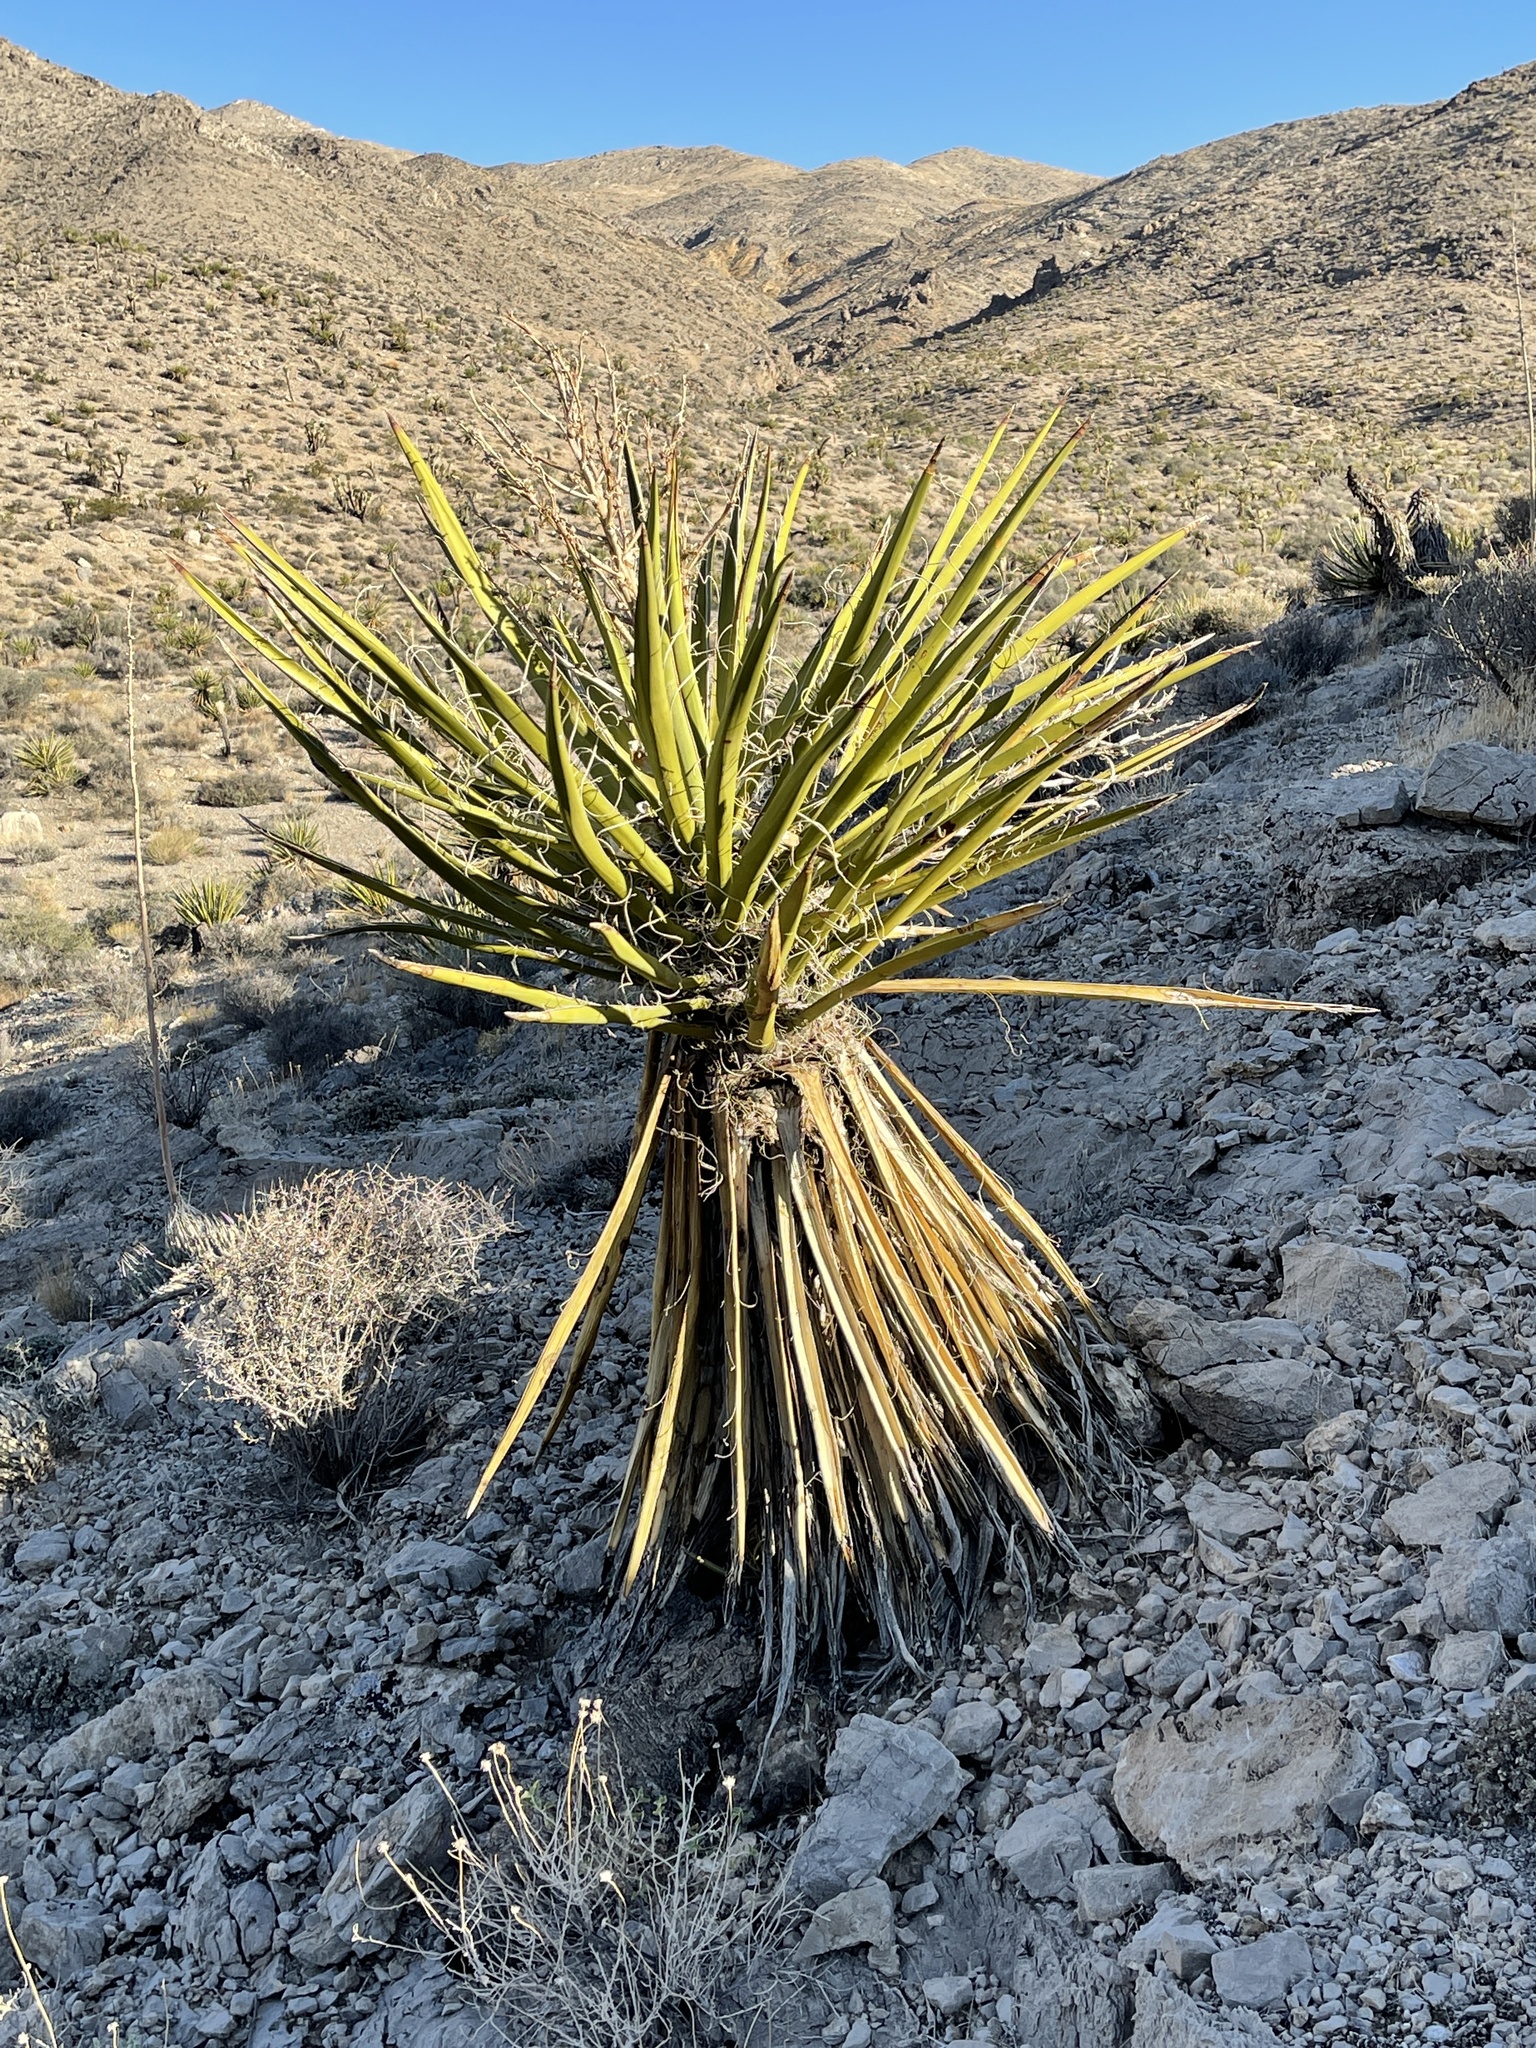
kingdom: Plantae
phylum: Tracheophyta
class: Liliopsida
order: Asparagales
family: Asparagaceae
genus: Yucca
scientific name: Yucca schidigera
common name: Mojave yucca
